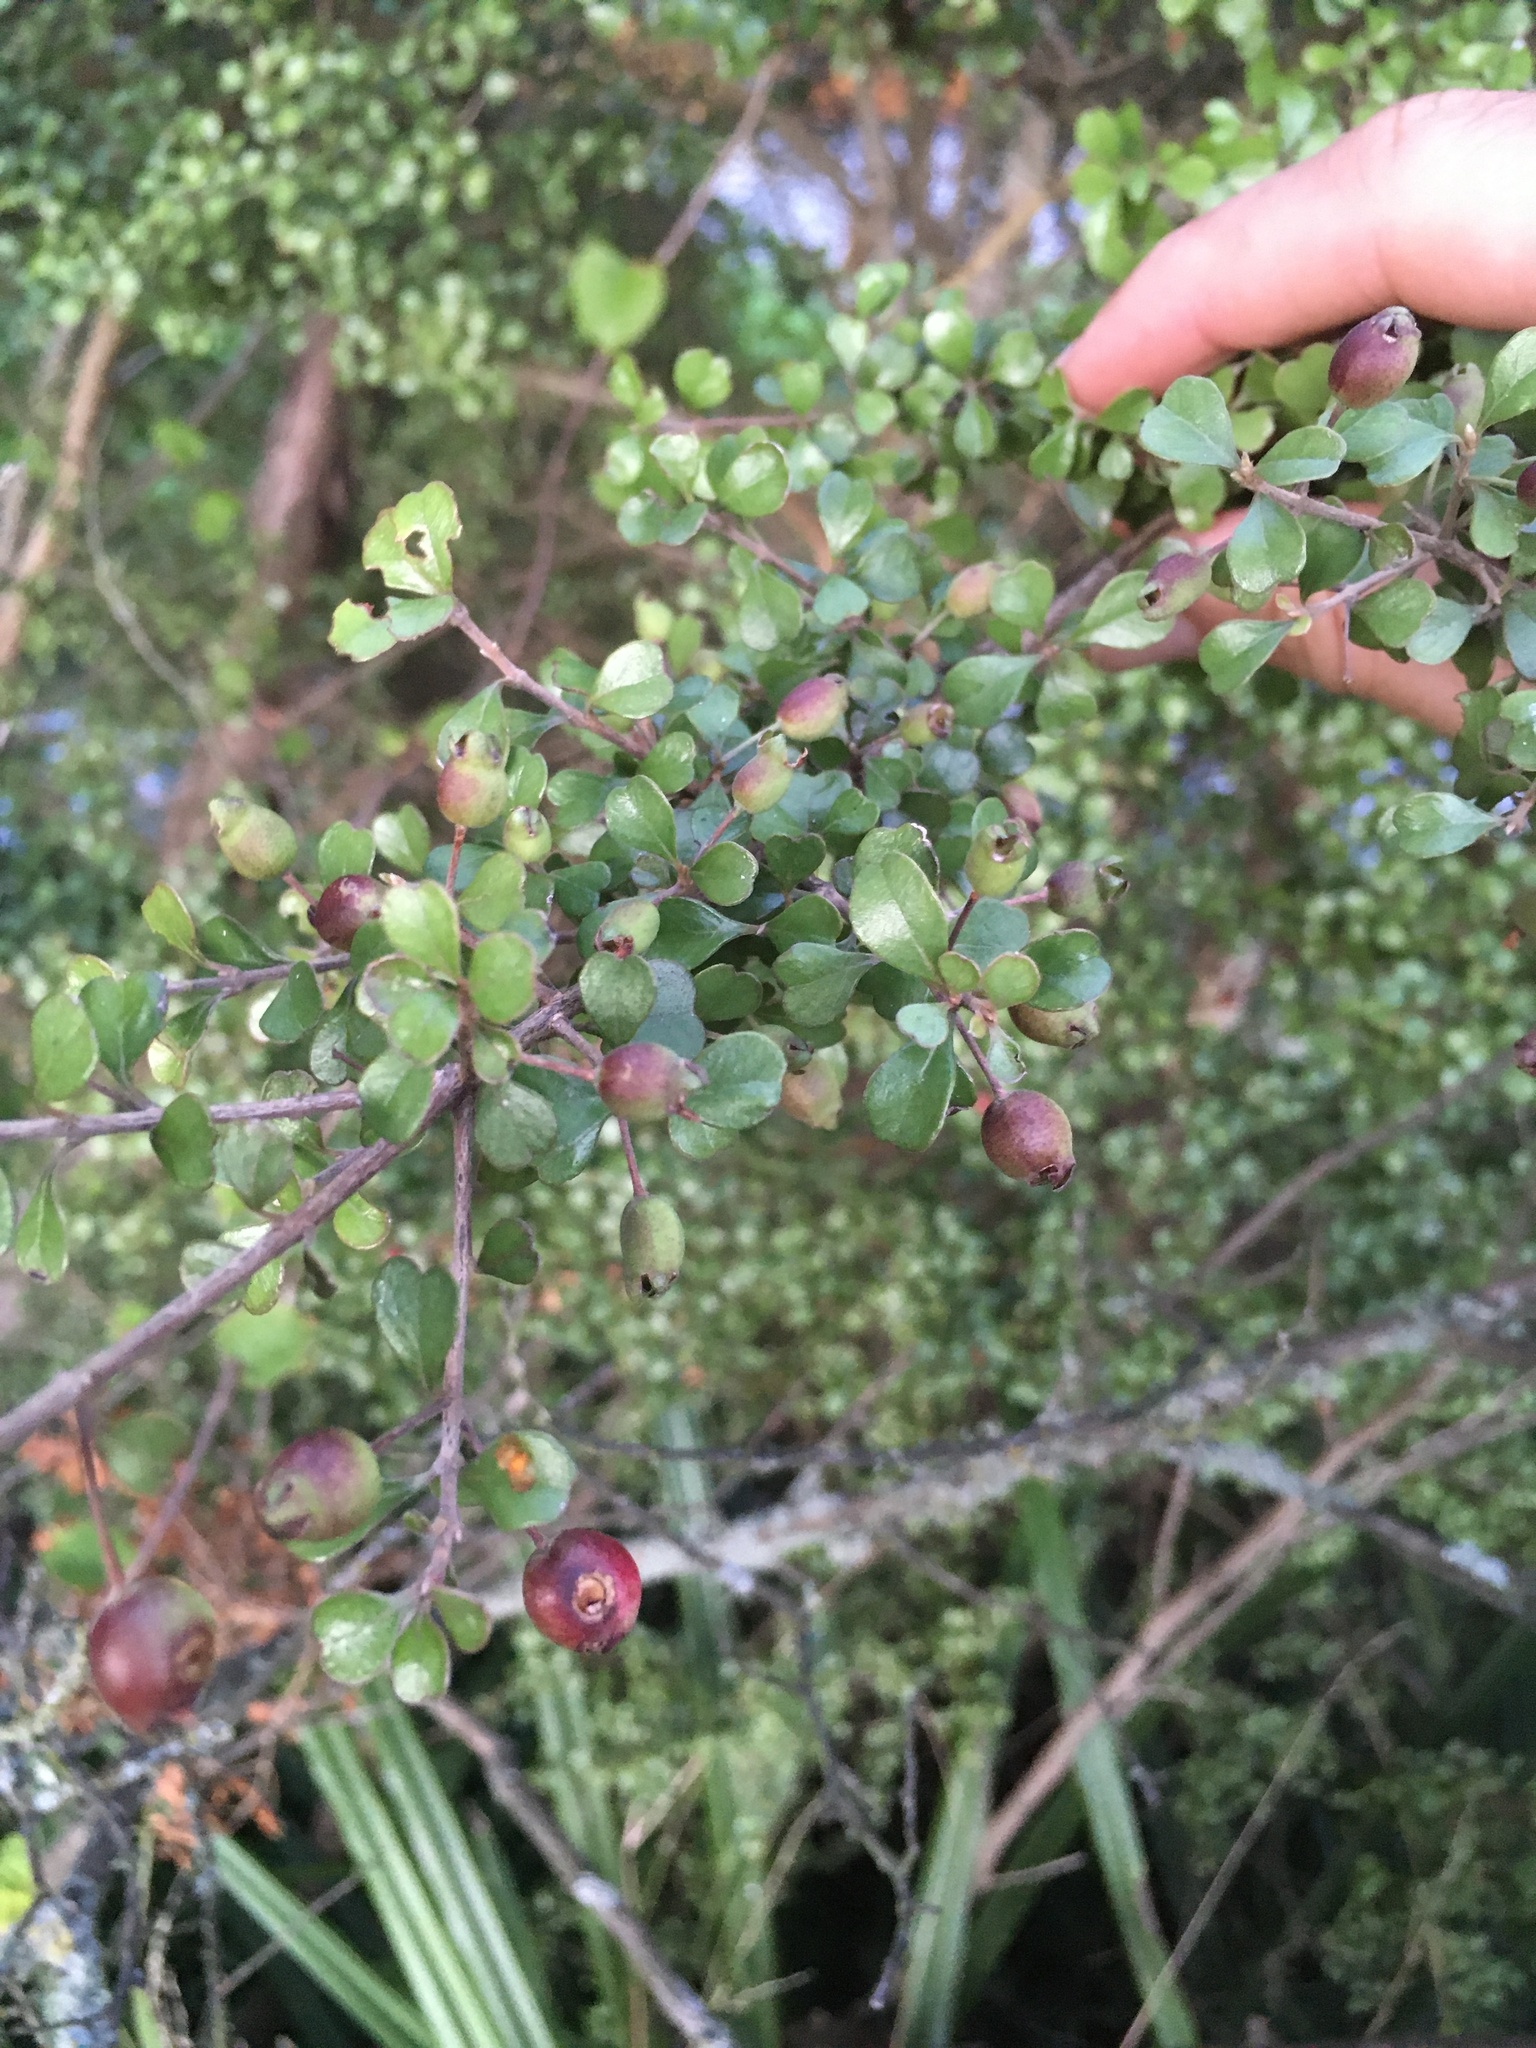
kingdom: Plantae
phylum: Tracheophyta
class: Magnoliopsida
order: Myrtales
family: Myrtaceae
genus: Lophomyrtus
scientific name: Lophomyrtus obcordata
